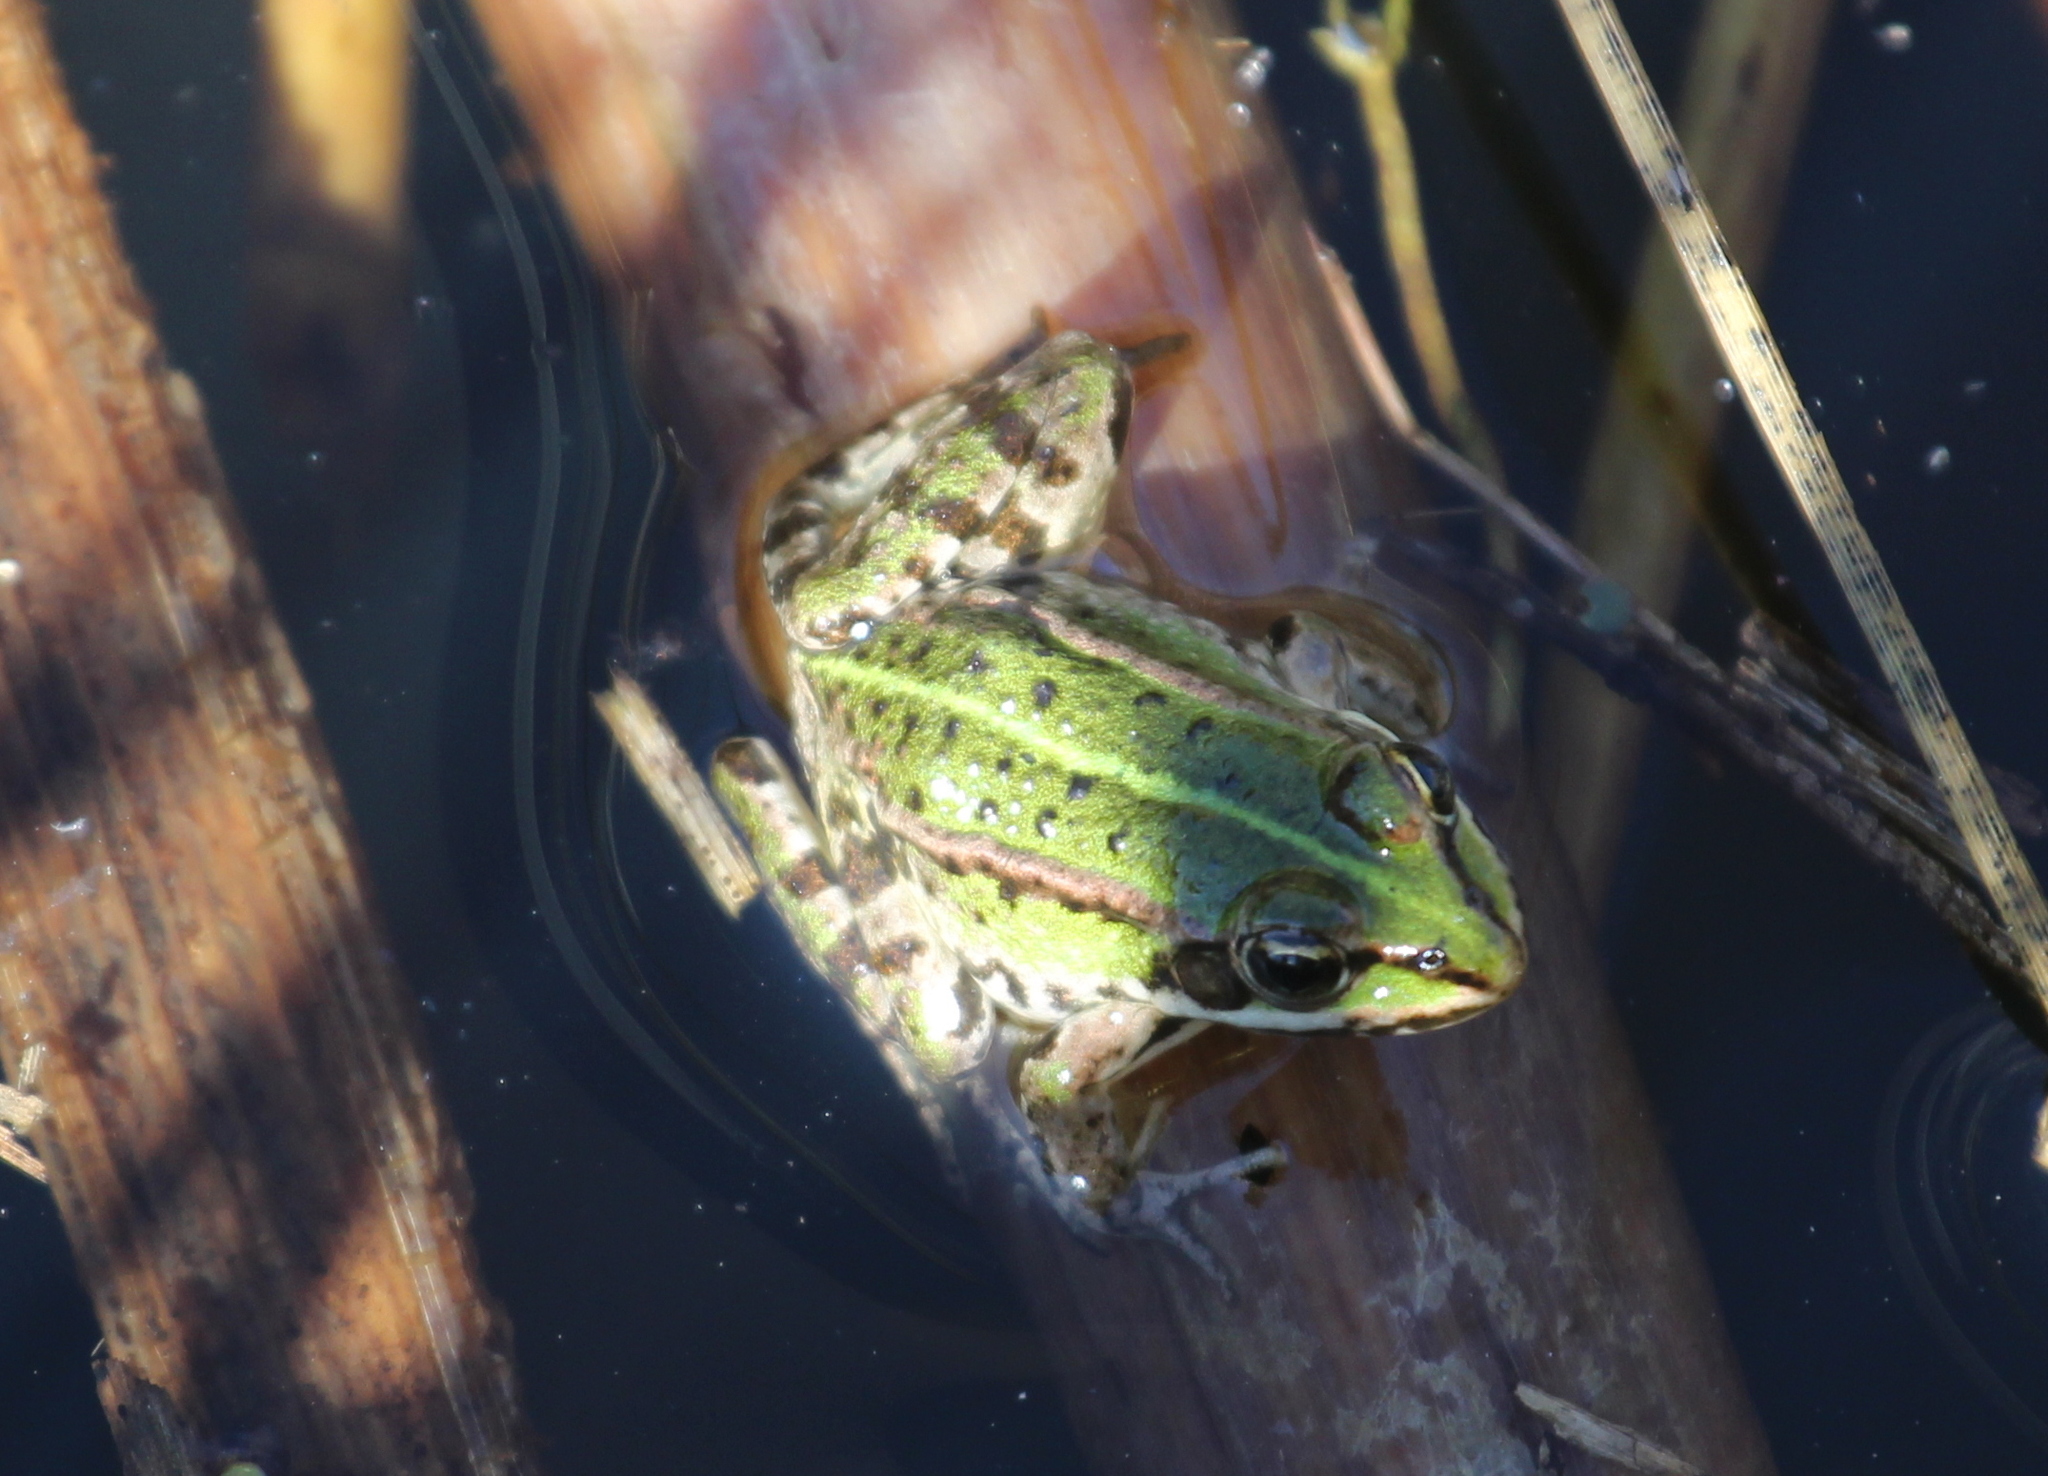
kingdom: Animalia
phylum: Chordata
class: Amphibia
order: Anura
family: Ranidae
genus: Pelophylax
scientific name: Pelophylax
